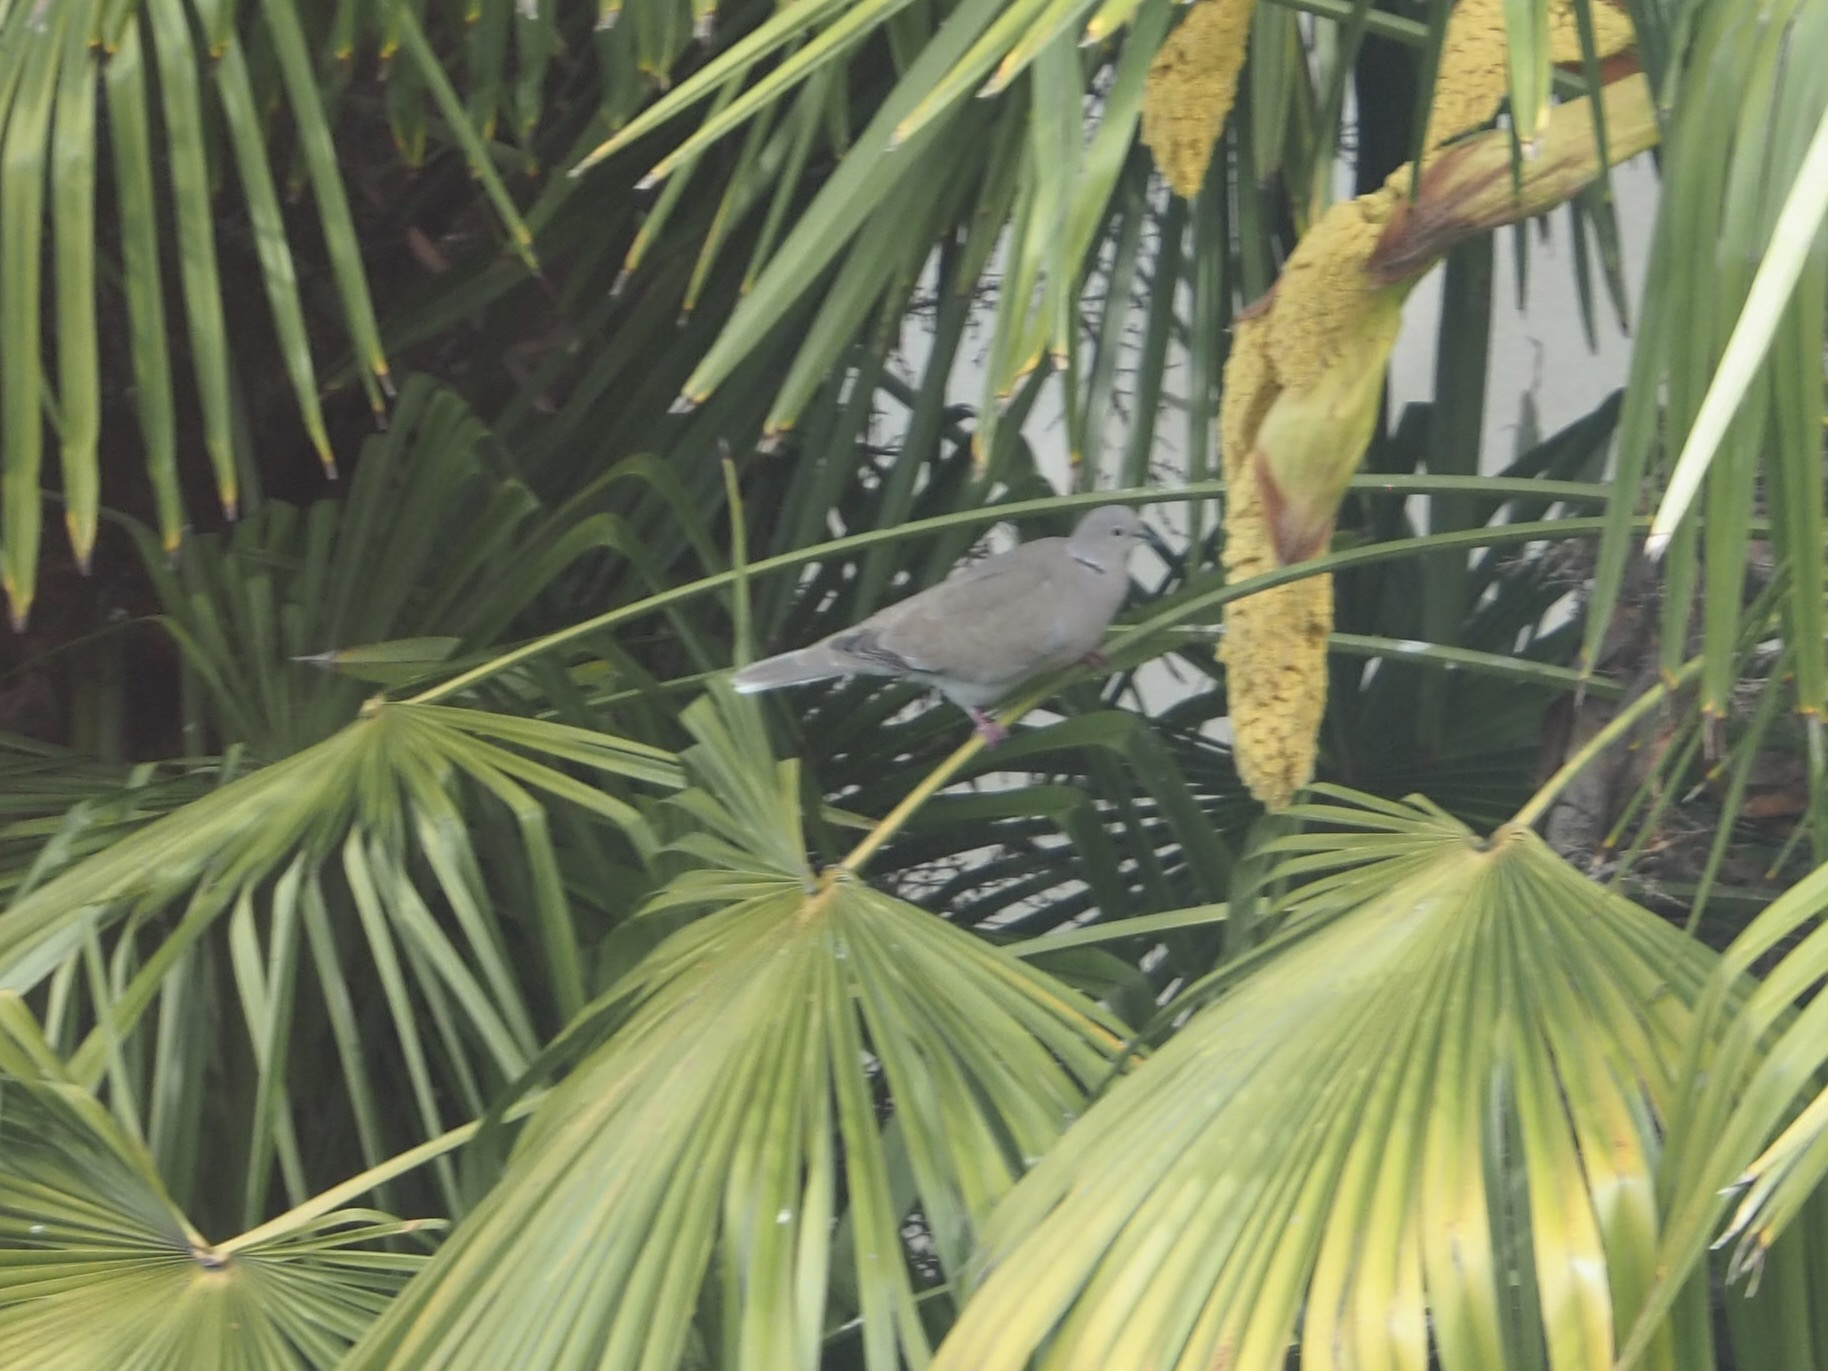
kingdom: Animalia
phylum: Chordata
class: Aves
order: Columbiformes
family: Columbidae
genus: Streptopelia
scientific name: Streptopelia decaocto
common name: Eurasian collared dove
